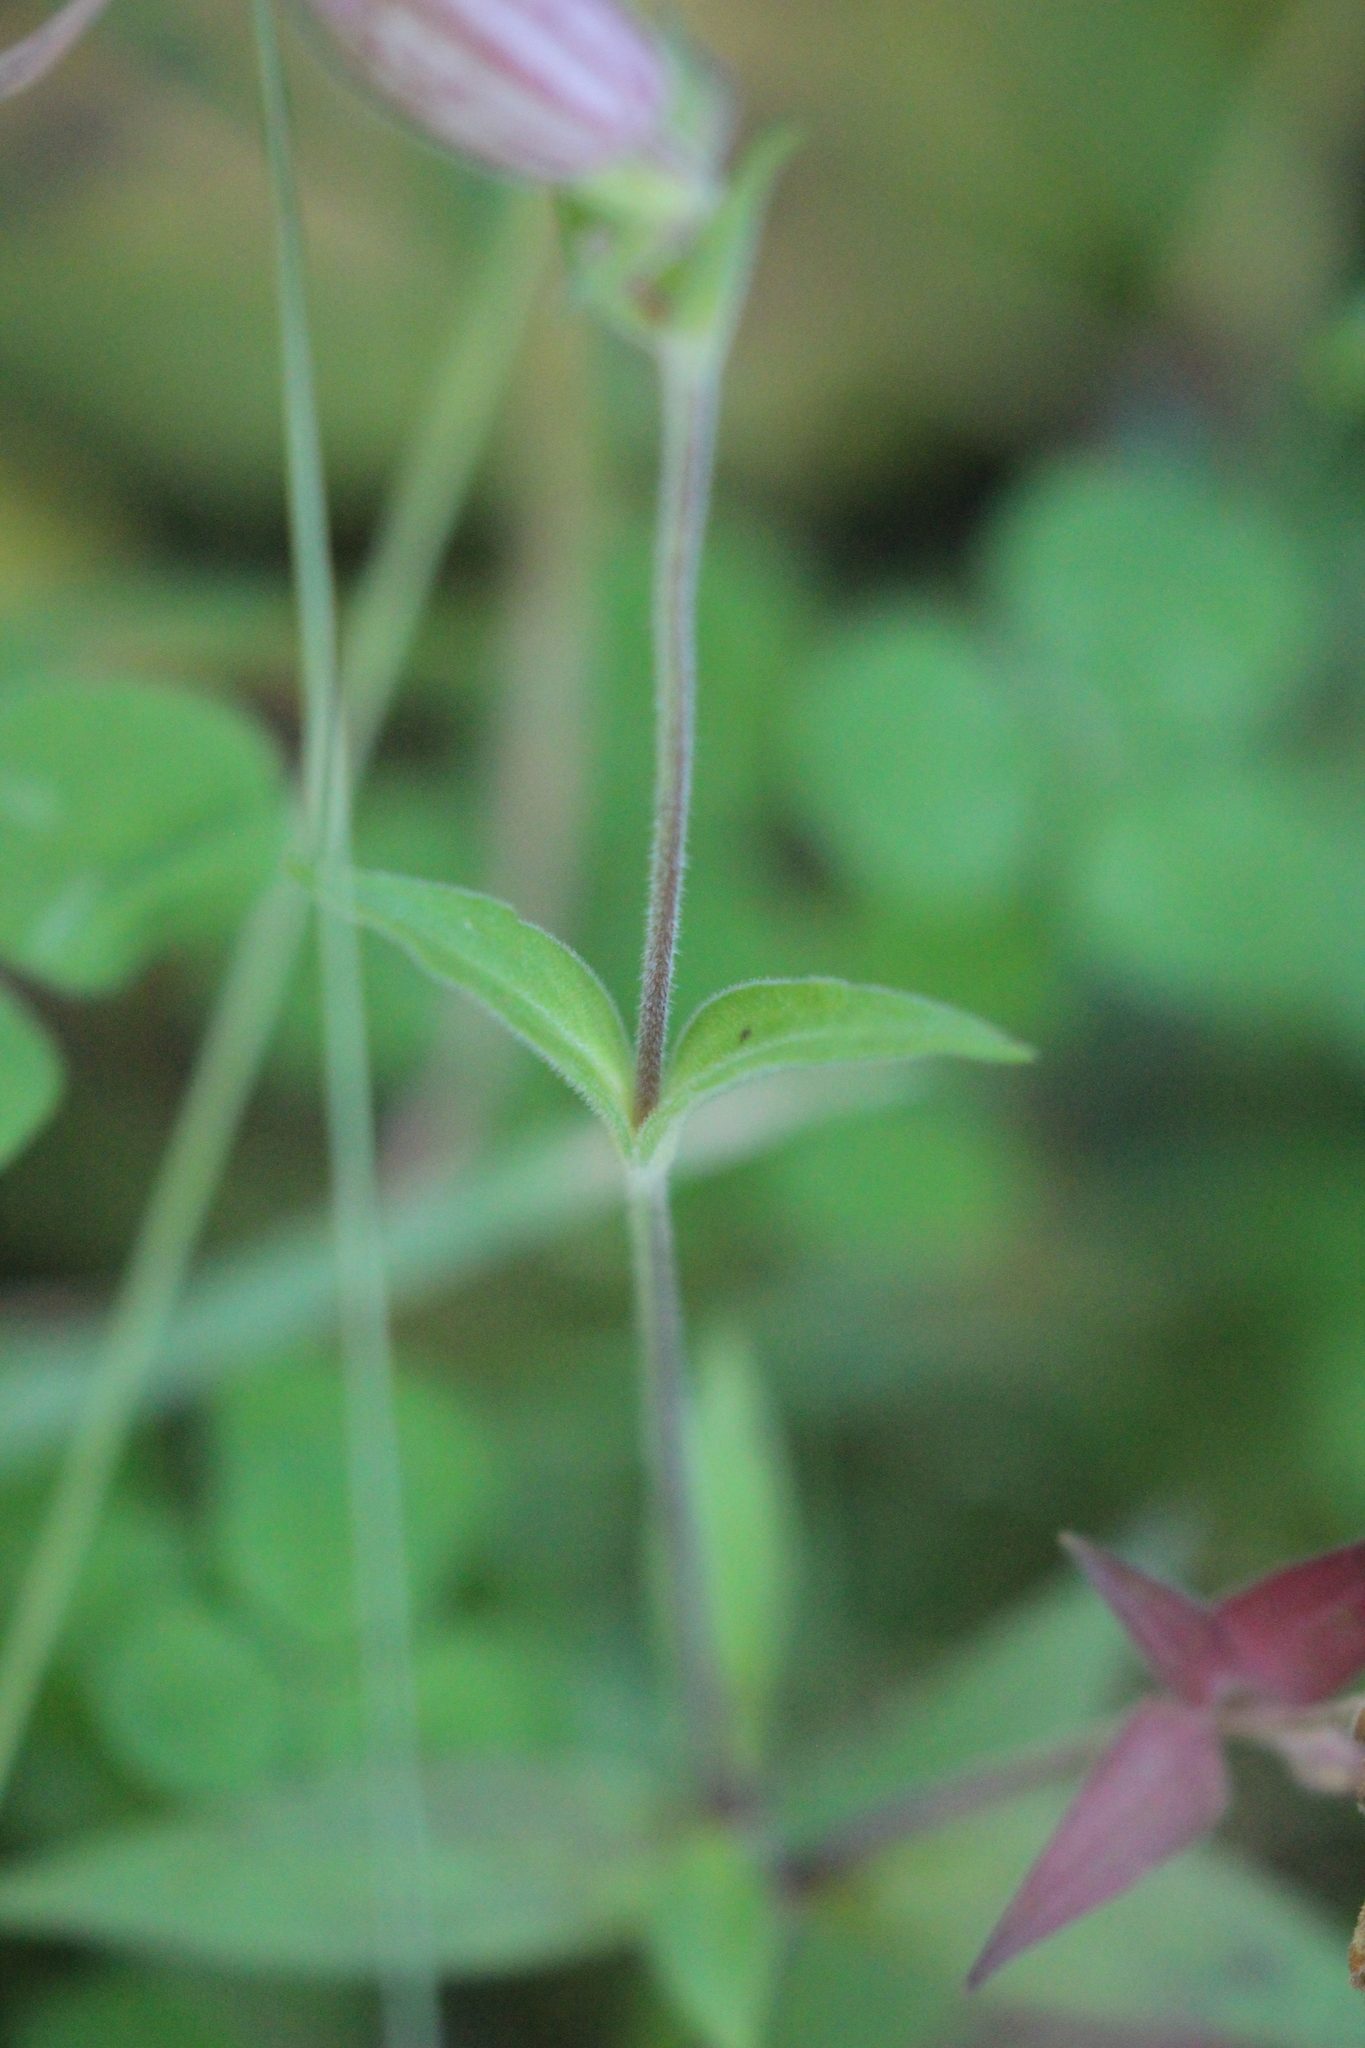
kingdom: Plantae
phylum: Tracheophyta
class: Magnoliopsida
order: Caryophyllales
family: Caryophyllaceae
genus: Silene
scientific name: Silene latifolia
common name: White campion
